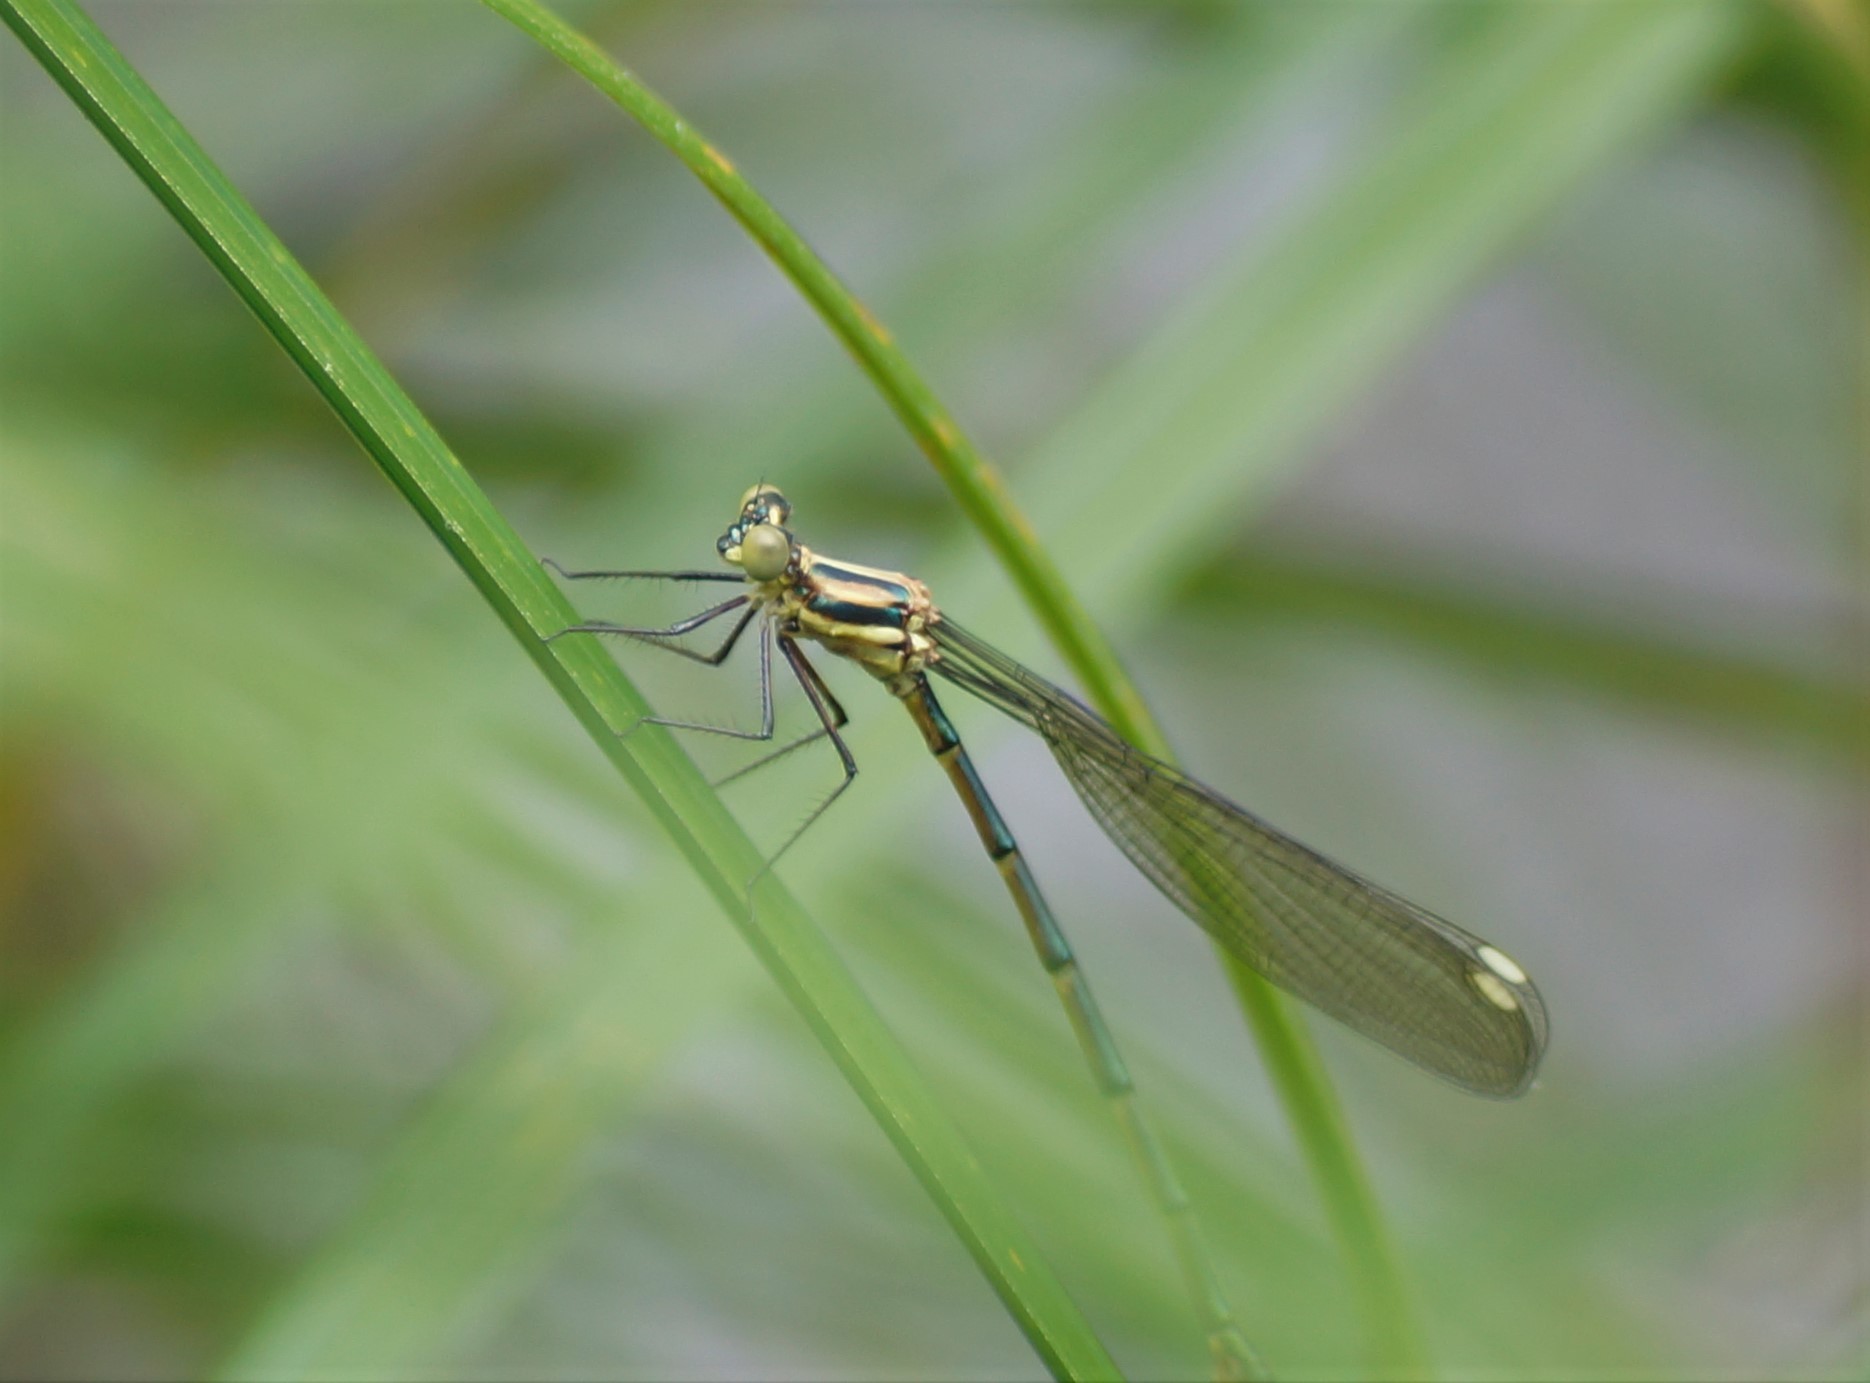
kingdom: Animalia
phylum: Arthropoda
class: Insecta
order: Odonata
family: Synlestidae
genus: Synlestes
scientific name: Synlestes weyersii
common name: Bronze needle
